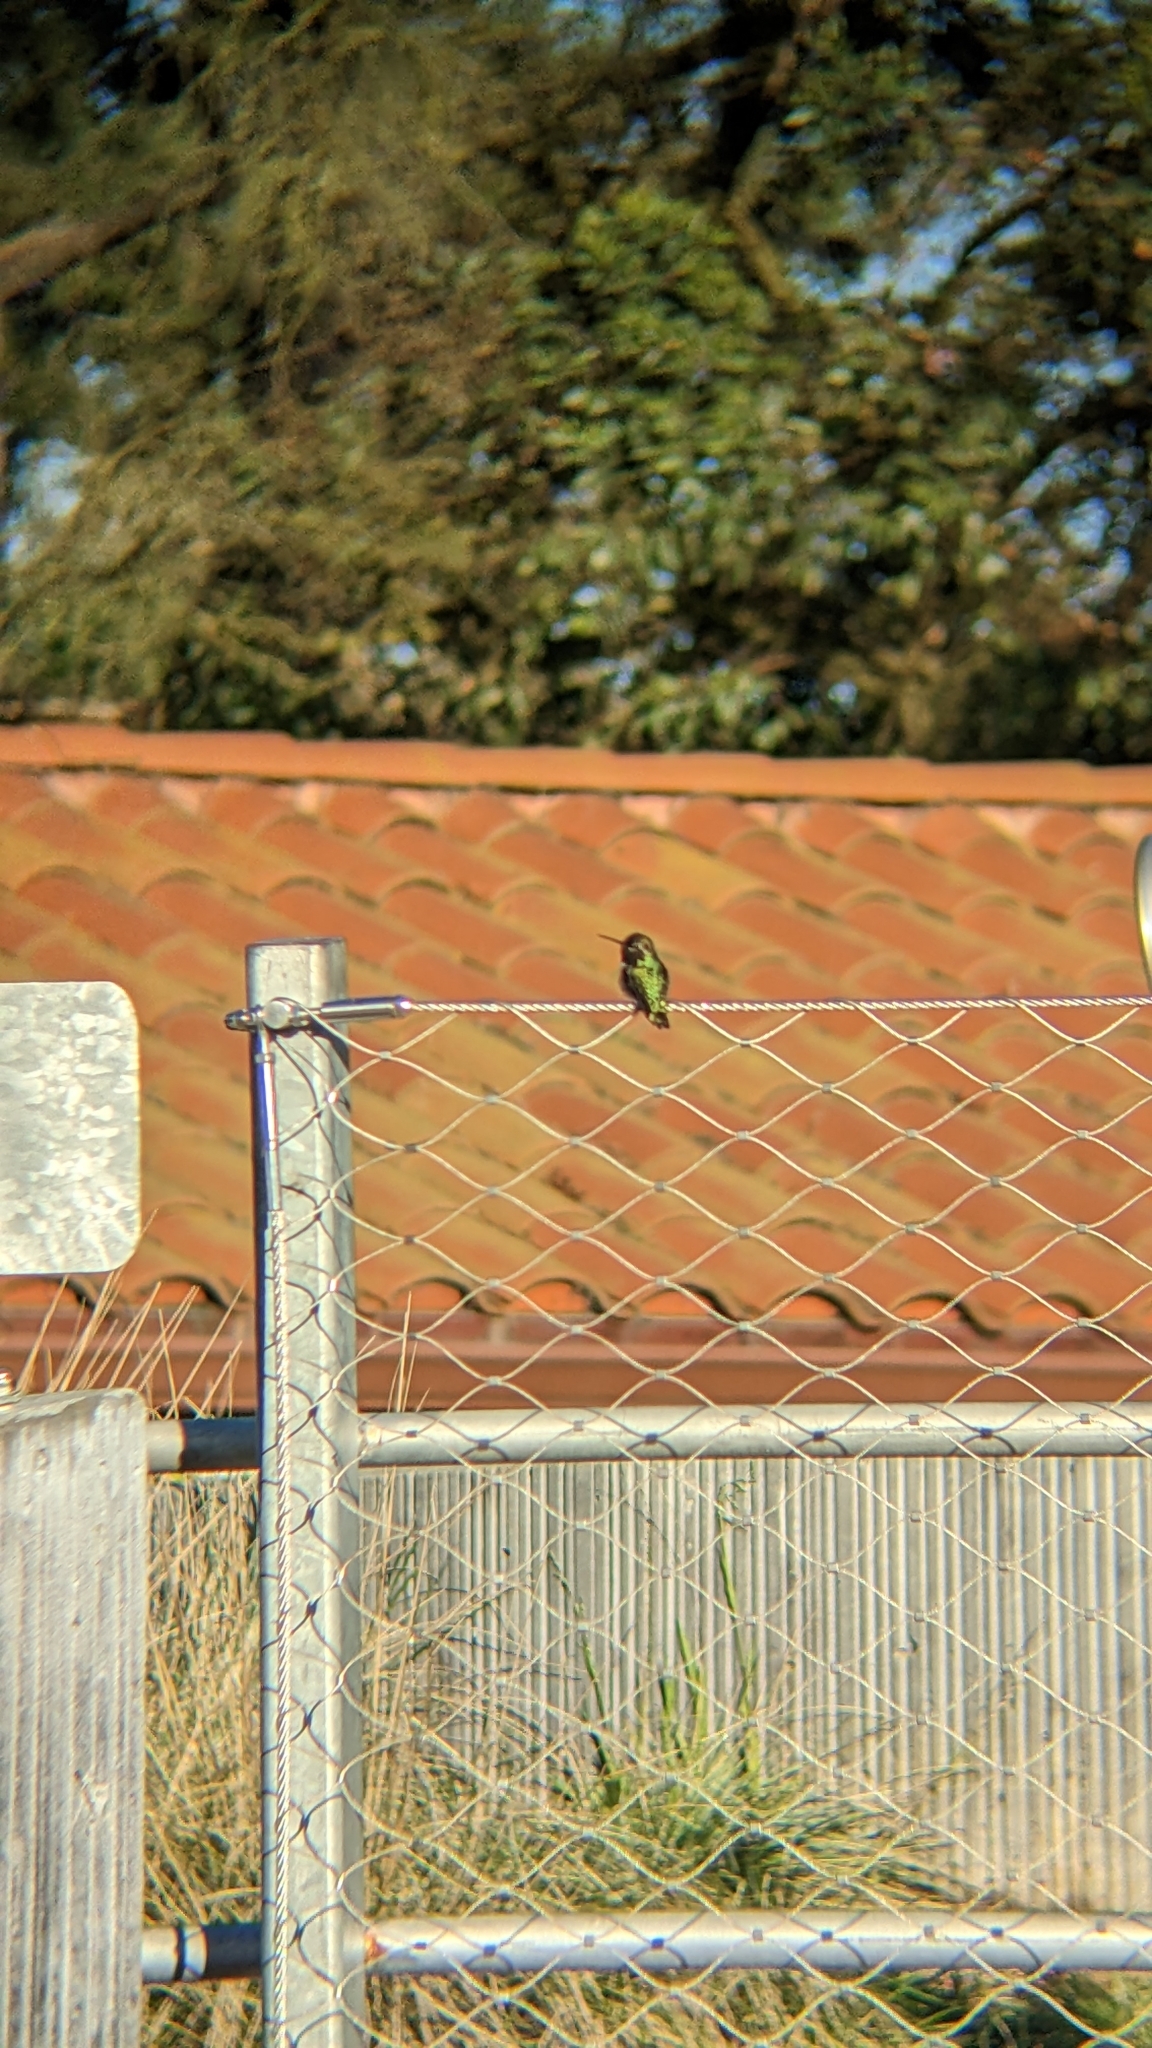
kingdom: Animalia
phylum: Chordata
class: Aves
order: Apodiformes
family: Trochilidae
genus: Calypte
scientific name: Calypte anna
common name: Anna's hummingbird
